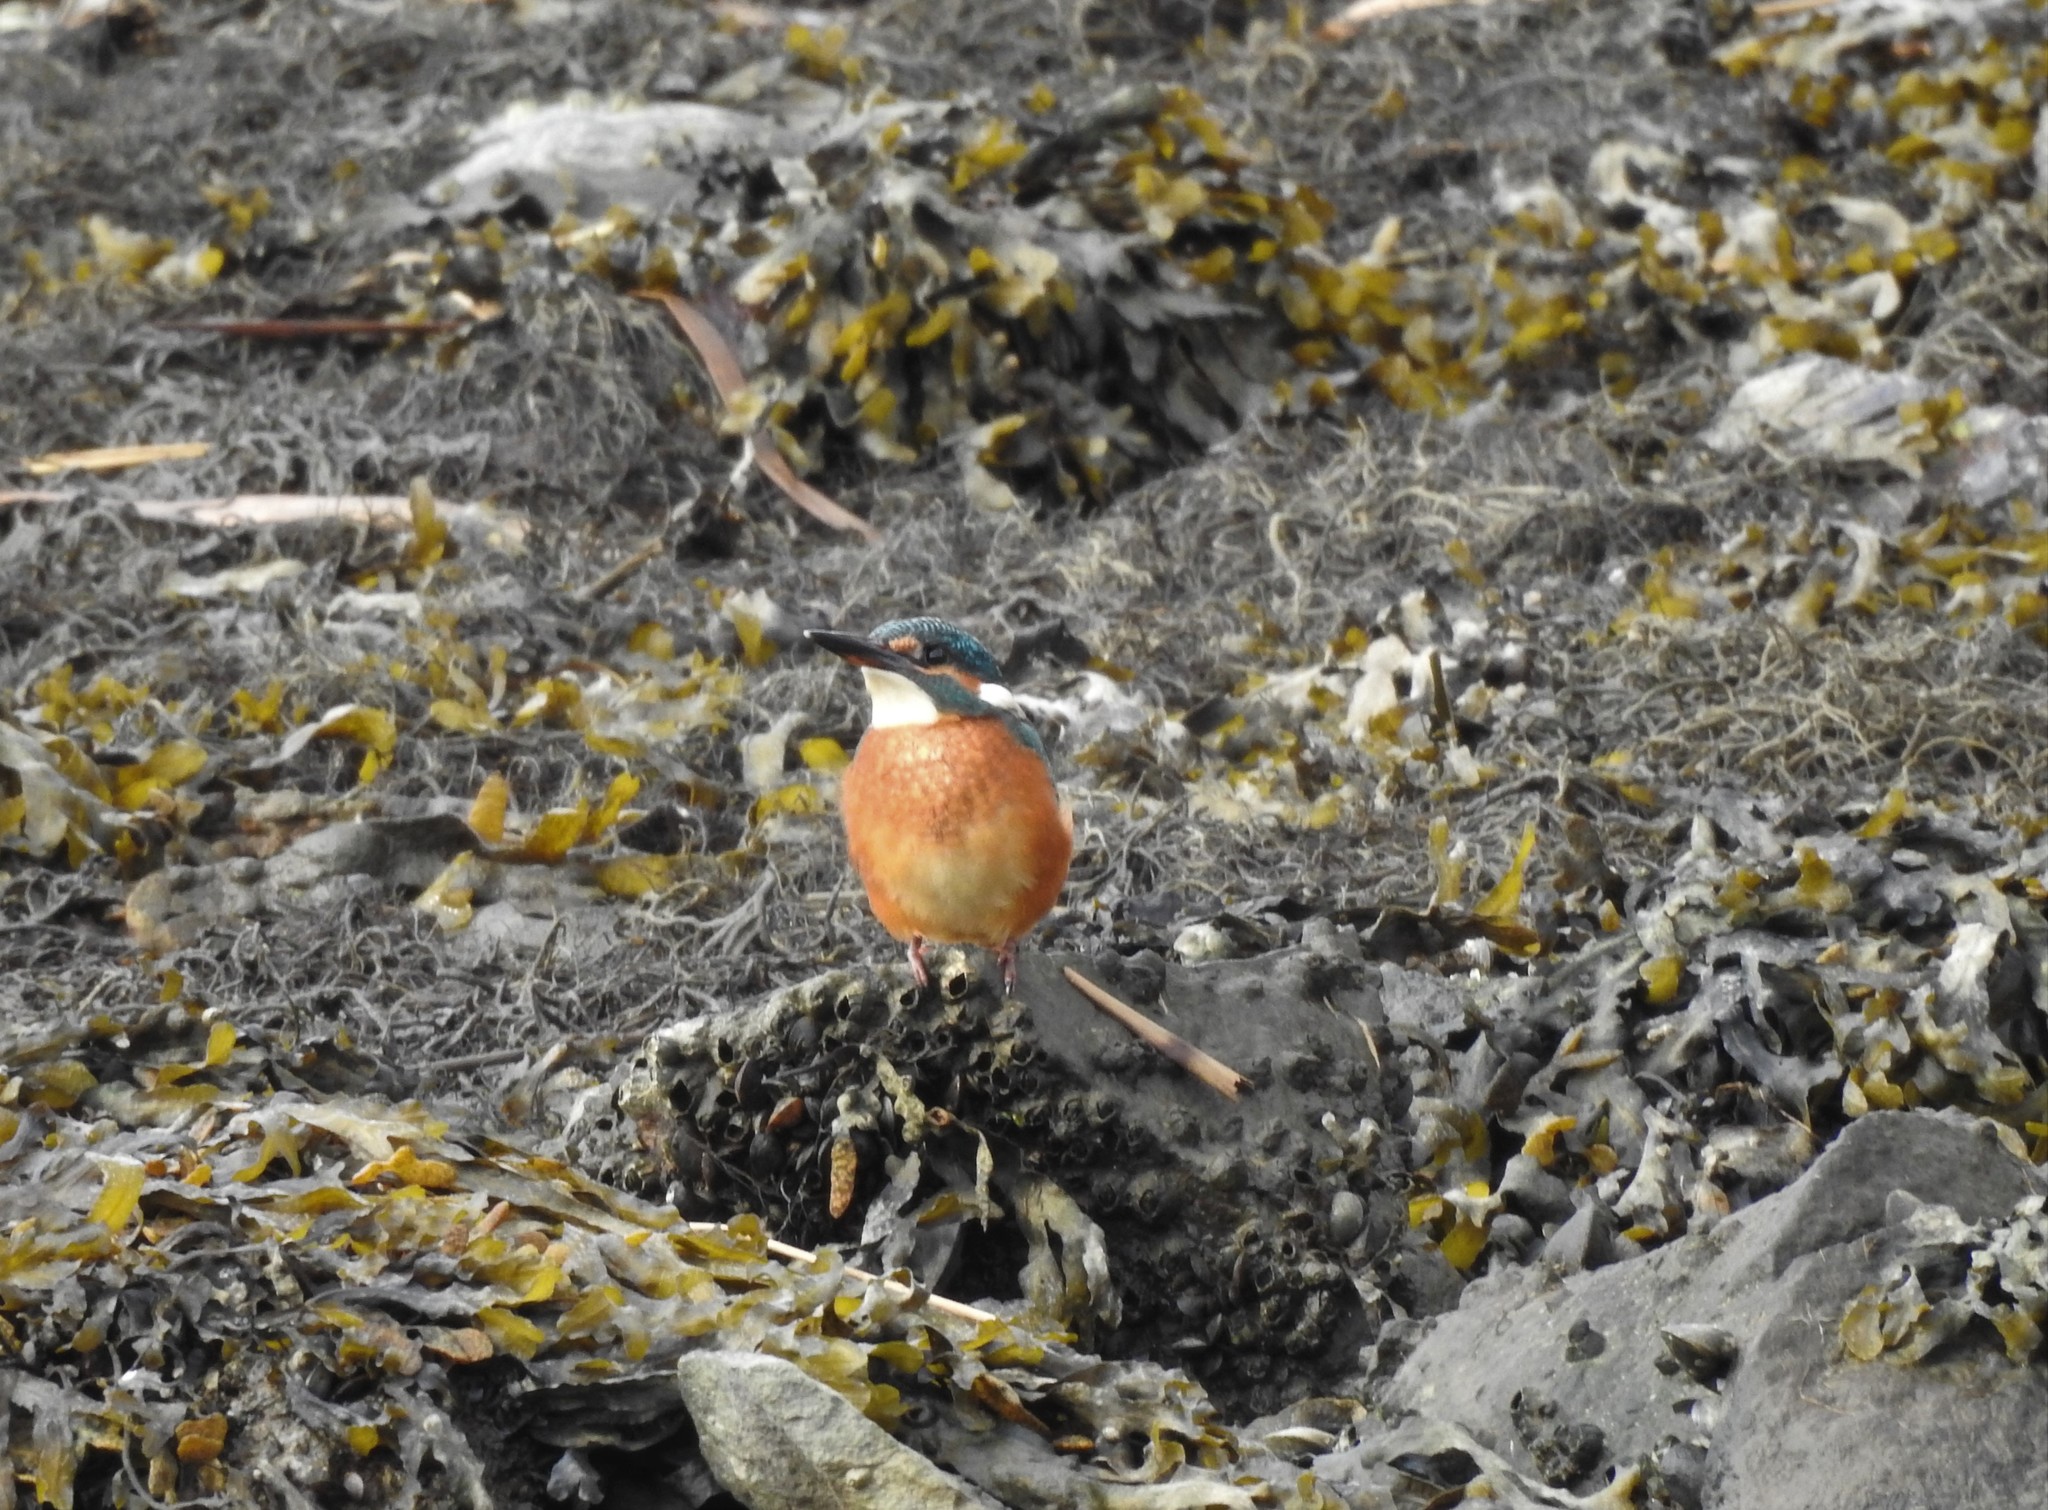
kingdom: Animalia
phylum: Chordata
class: Aves
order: Coraciiformes
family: Alcedinidae
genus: Alcedo
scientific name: Alcedo atthis
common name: Common kingfisher
